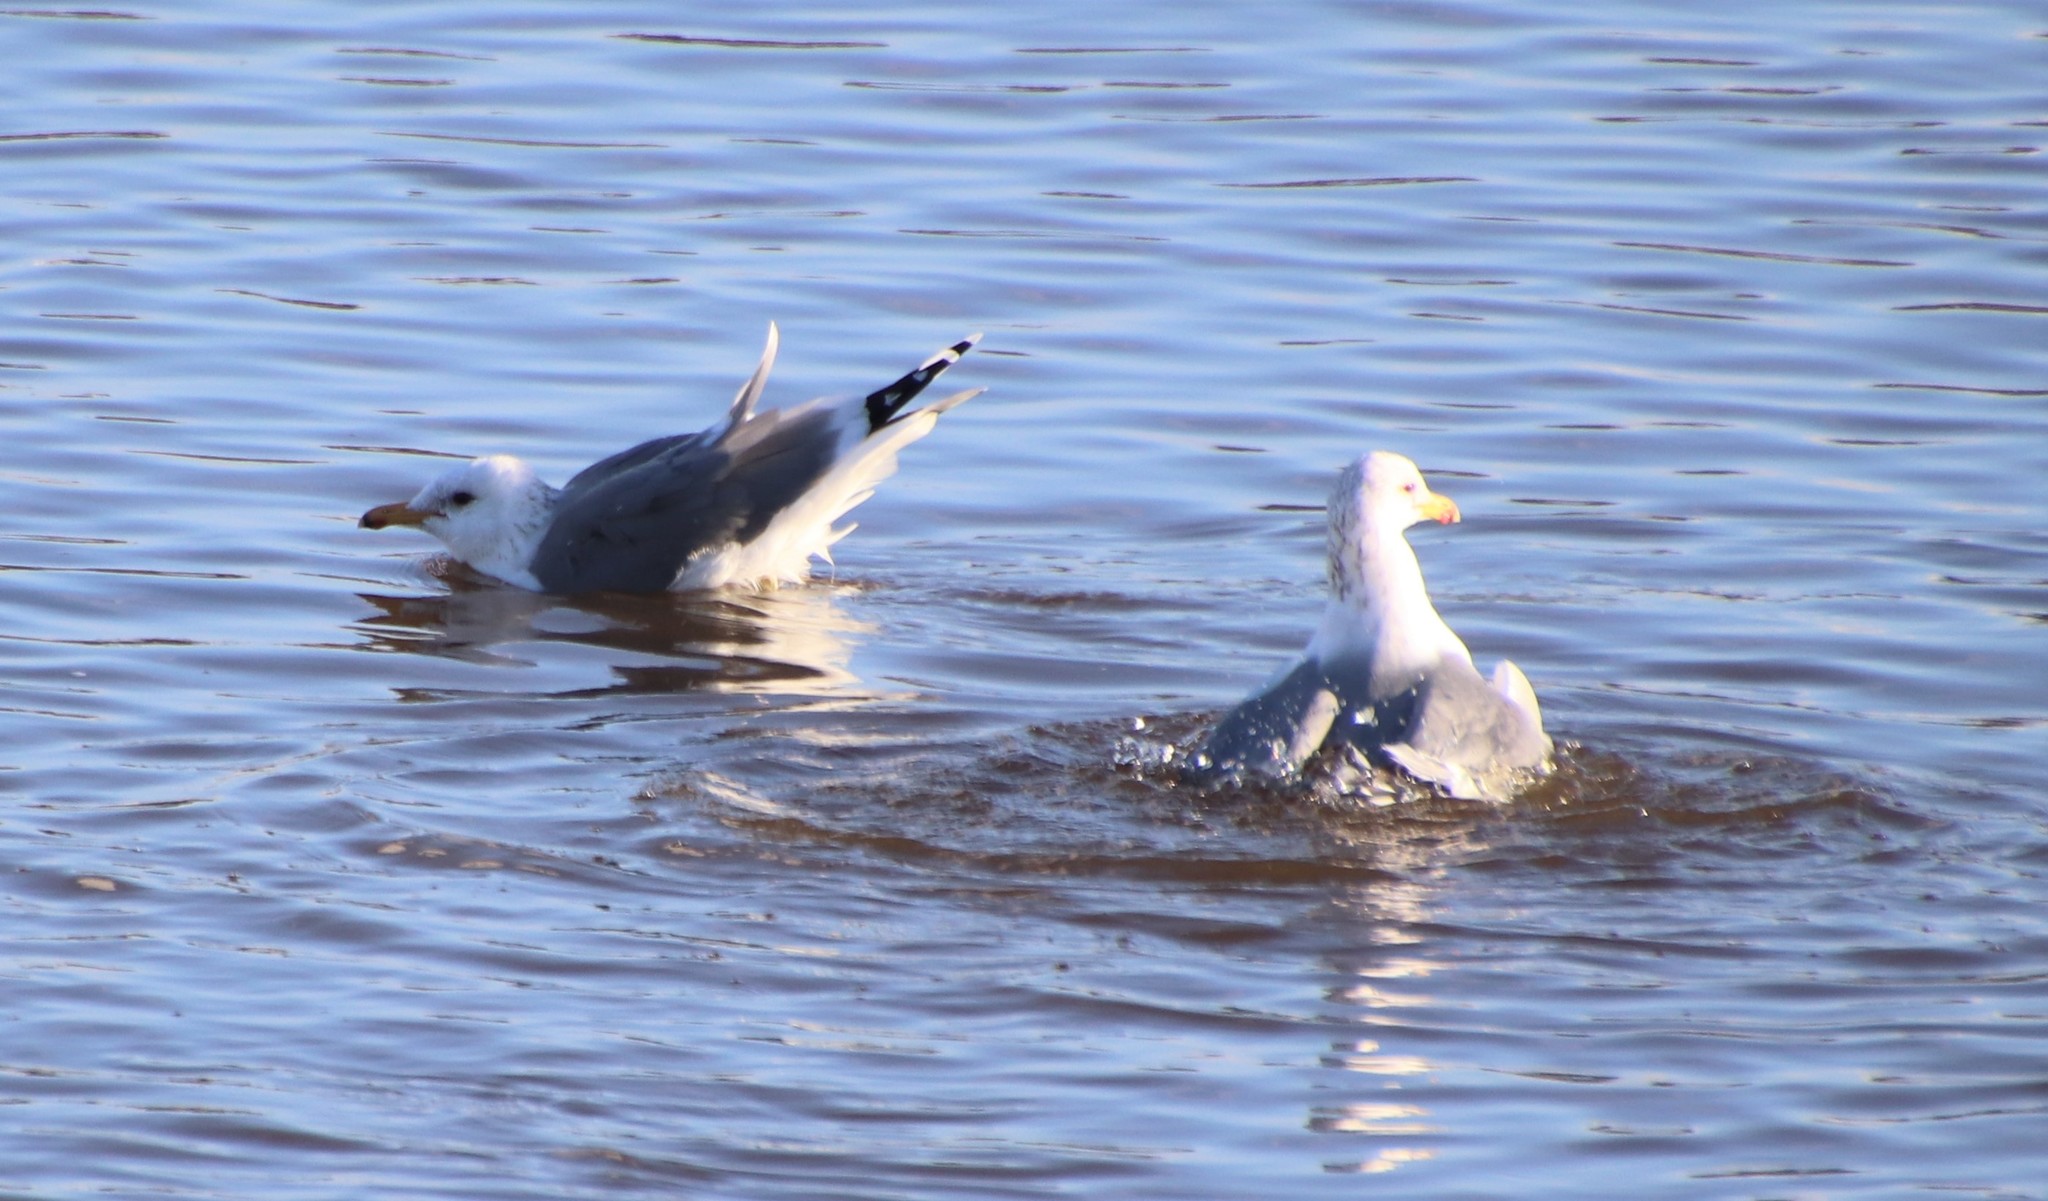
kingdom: Animalia
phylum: Chordata
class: Aves
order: Charadriiformes
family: Laridae
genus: Larus
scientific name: Larus californicus
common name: California gull
